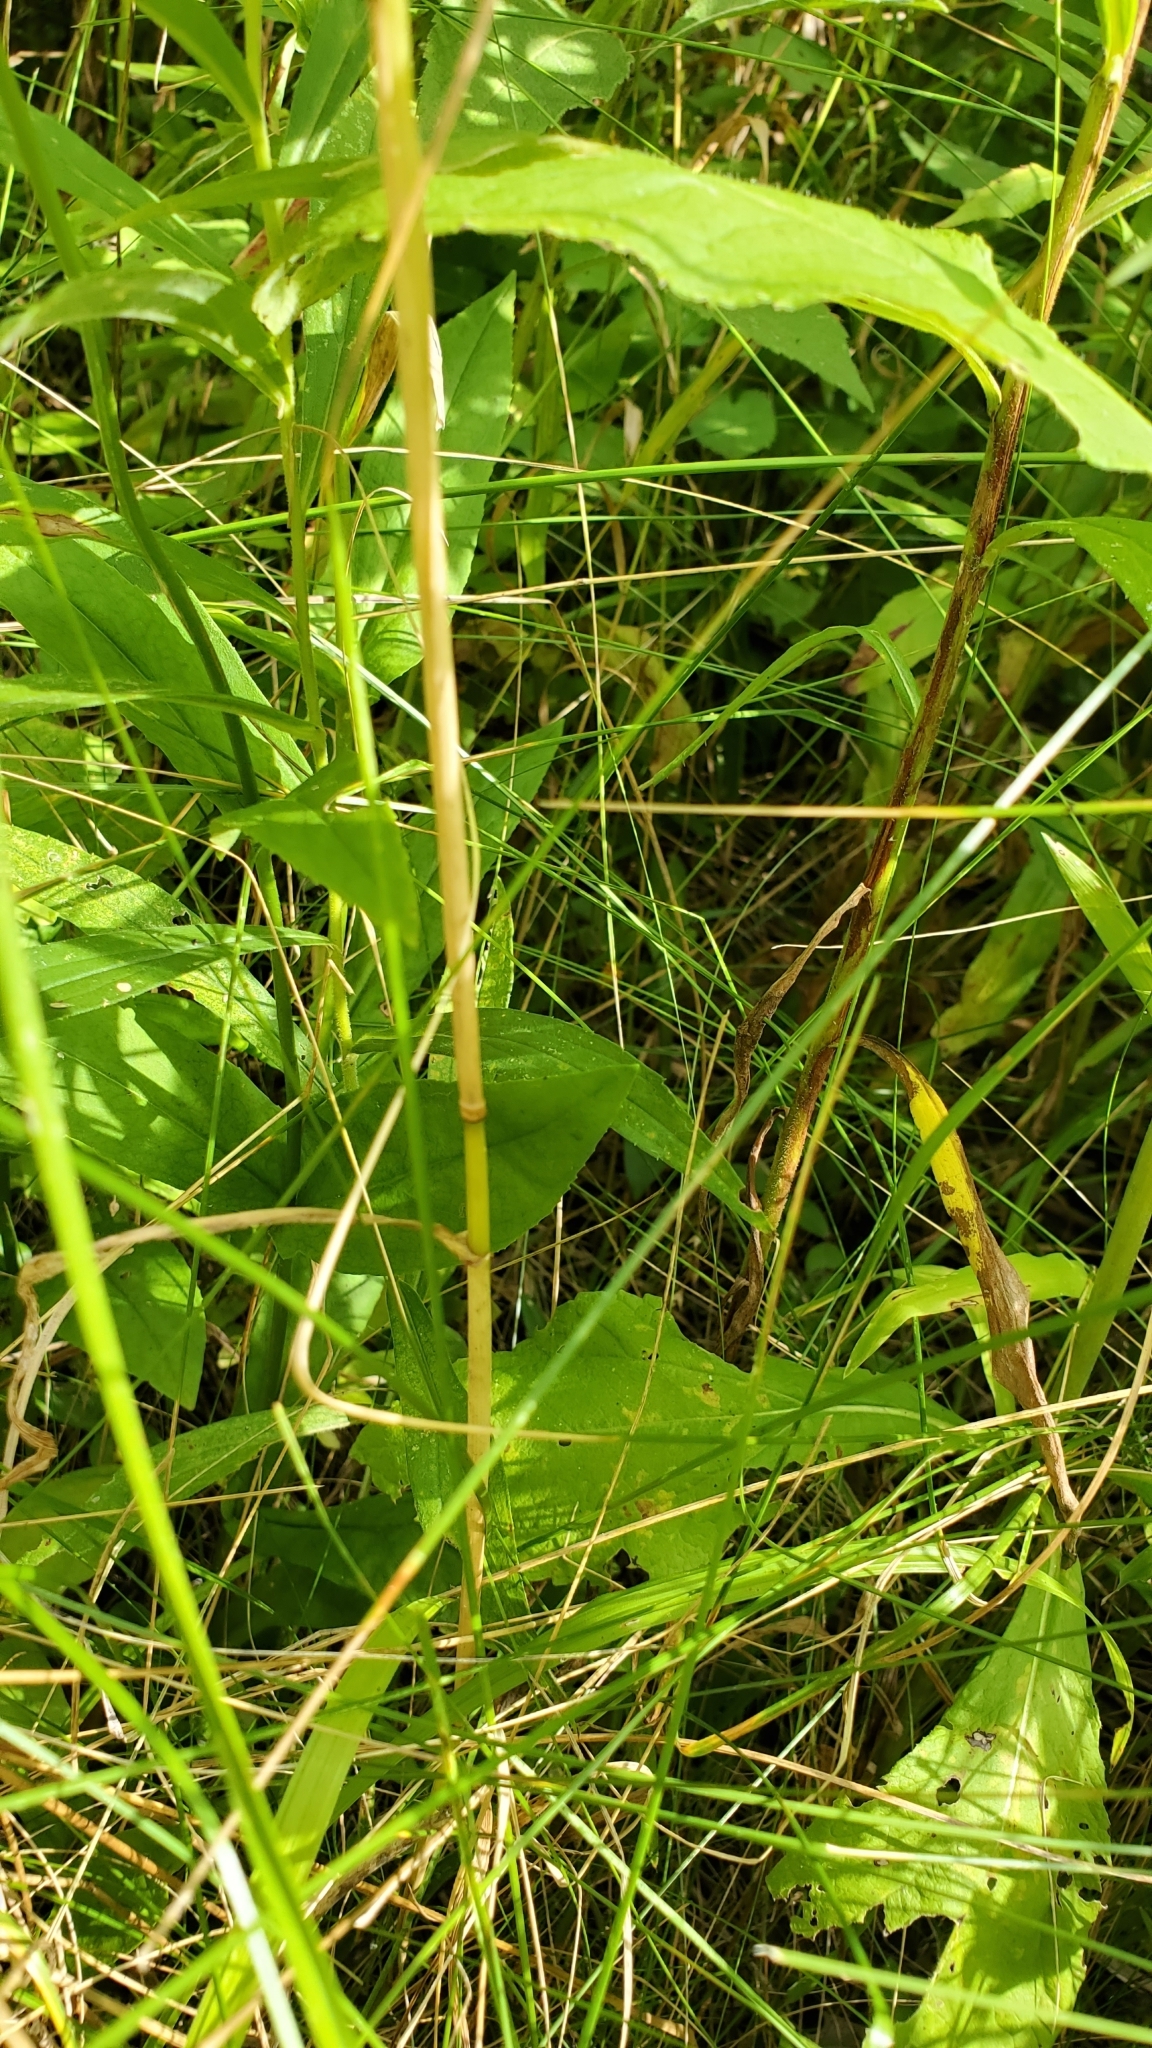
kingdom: Plantae
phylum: Tracheophyta
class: Magnoliopsida
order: Asterales
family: Asteraceae
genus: Eutrochium
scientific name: Eutrochium purpureum
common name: Gravelroot
